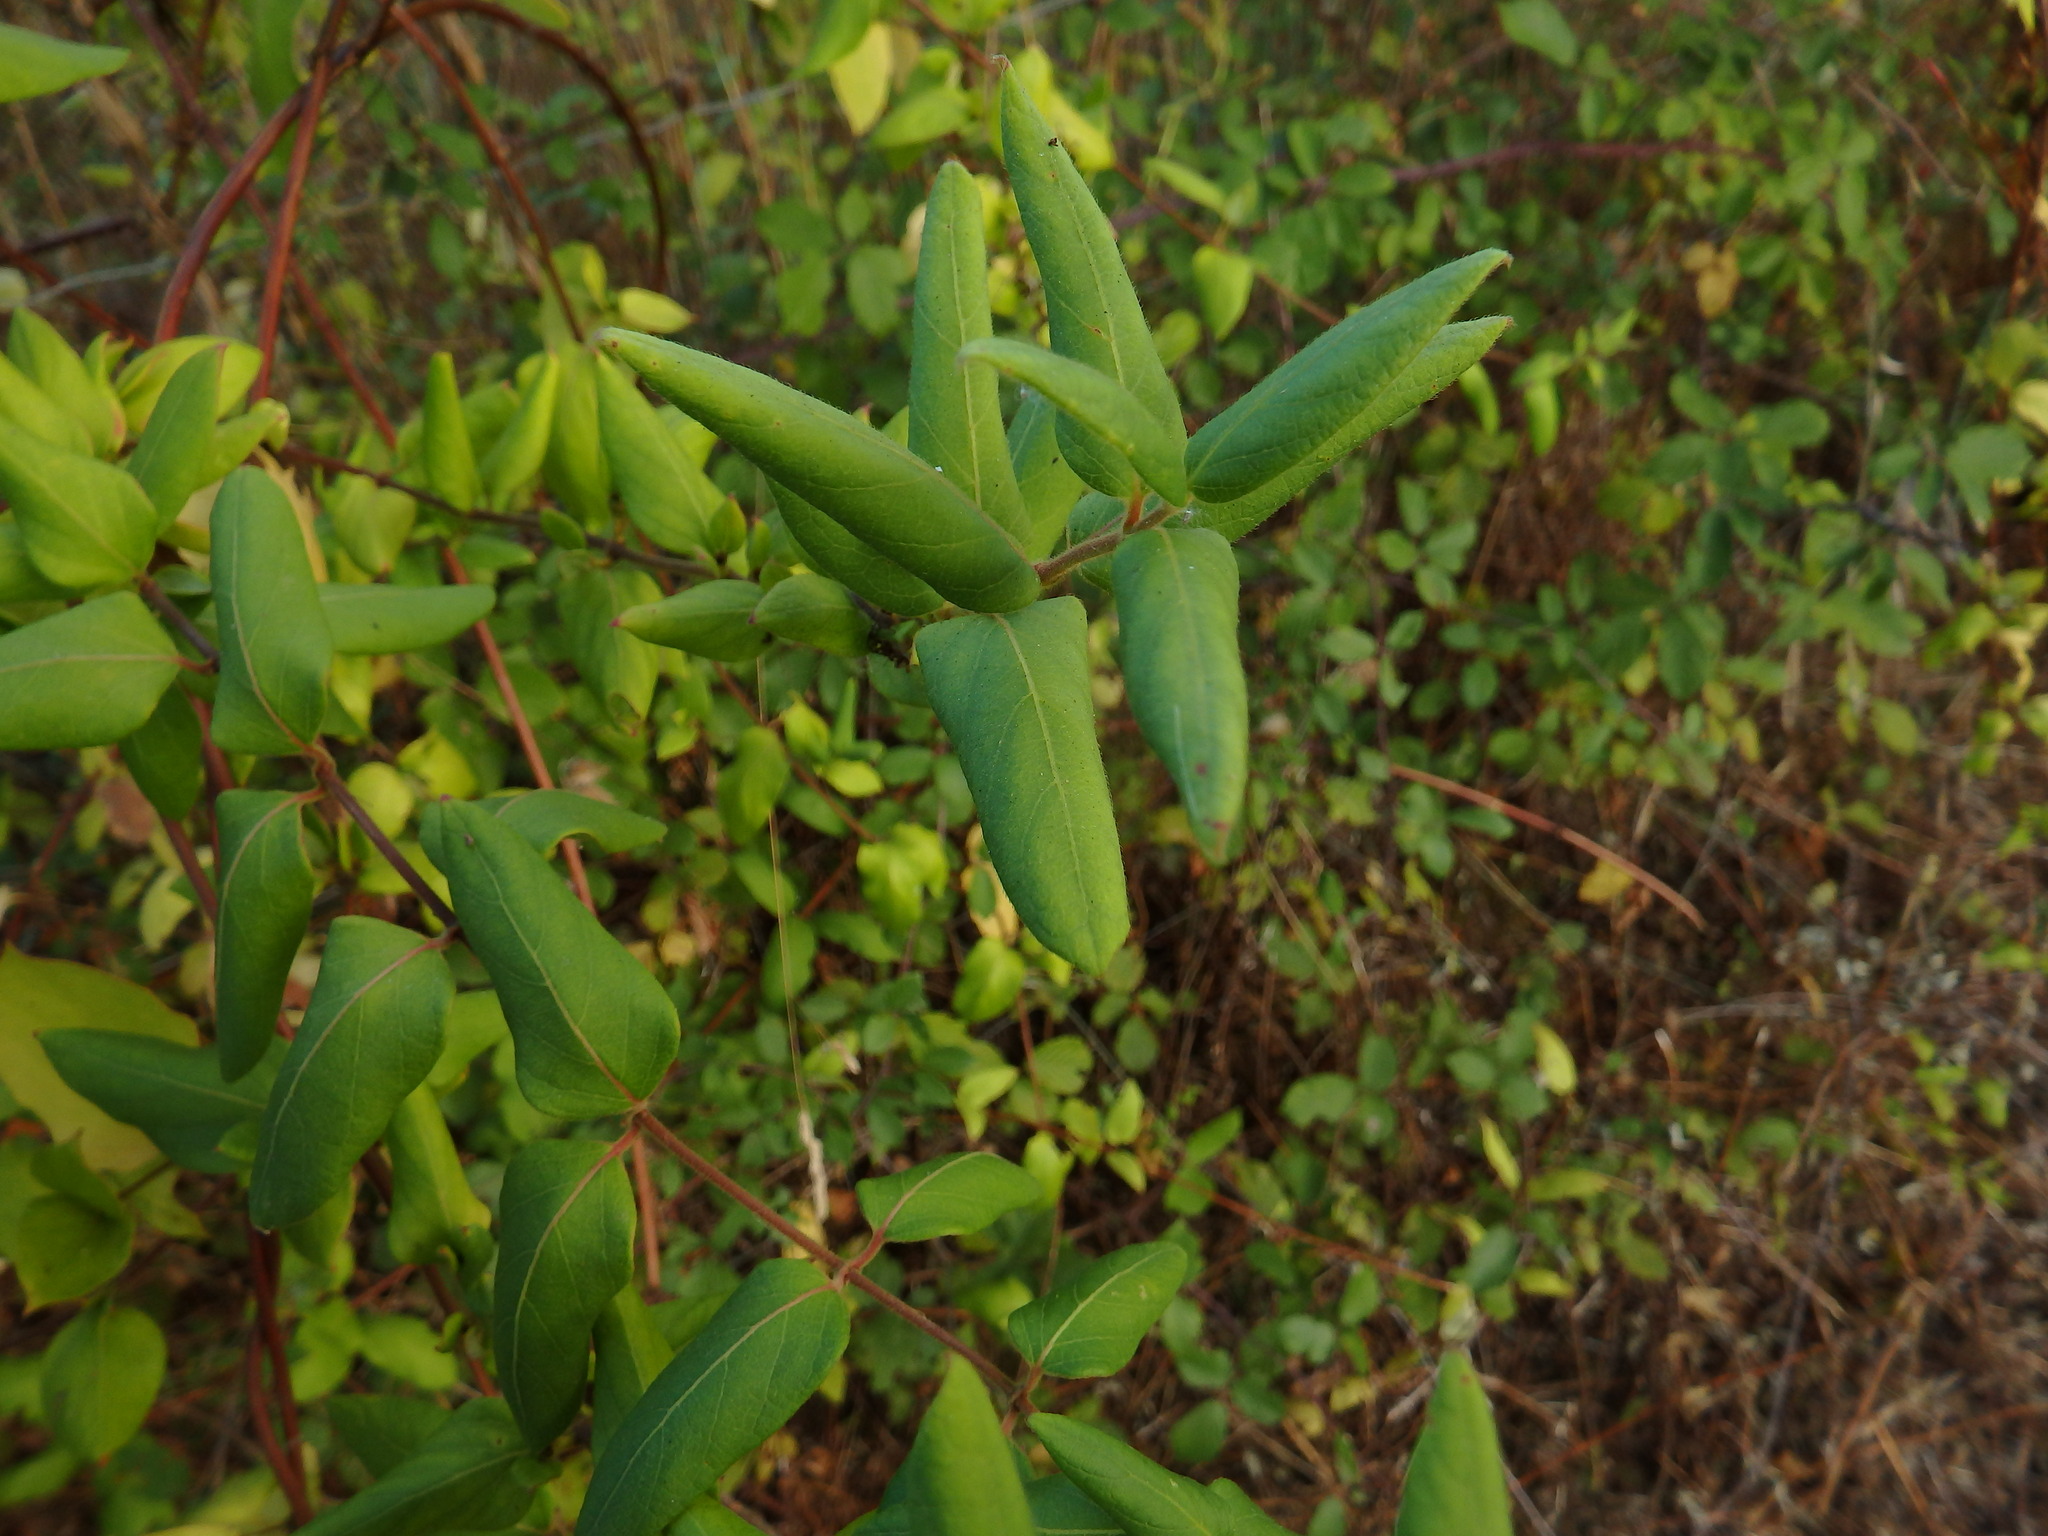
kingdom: Plantae
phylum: Tracheophyta
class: Magnoliopsida
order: Dipsacales
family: Caprifoliaceae
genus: Lonicera
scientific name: Lonicera japonica
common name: Japanese honeysuckle
